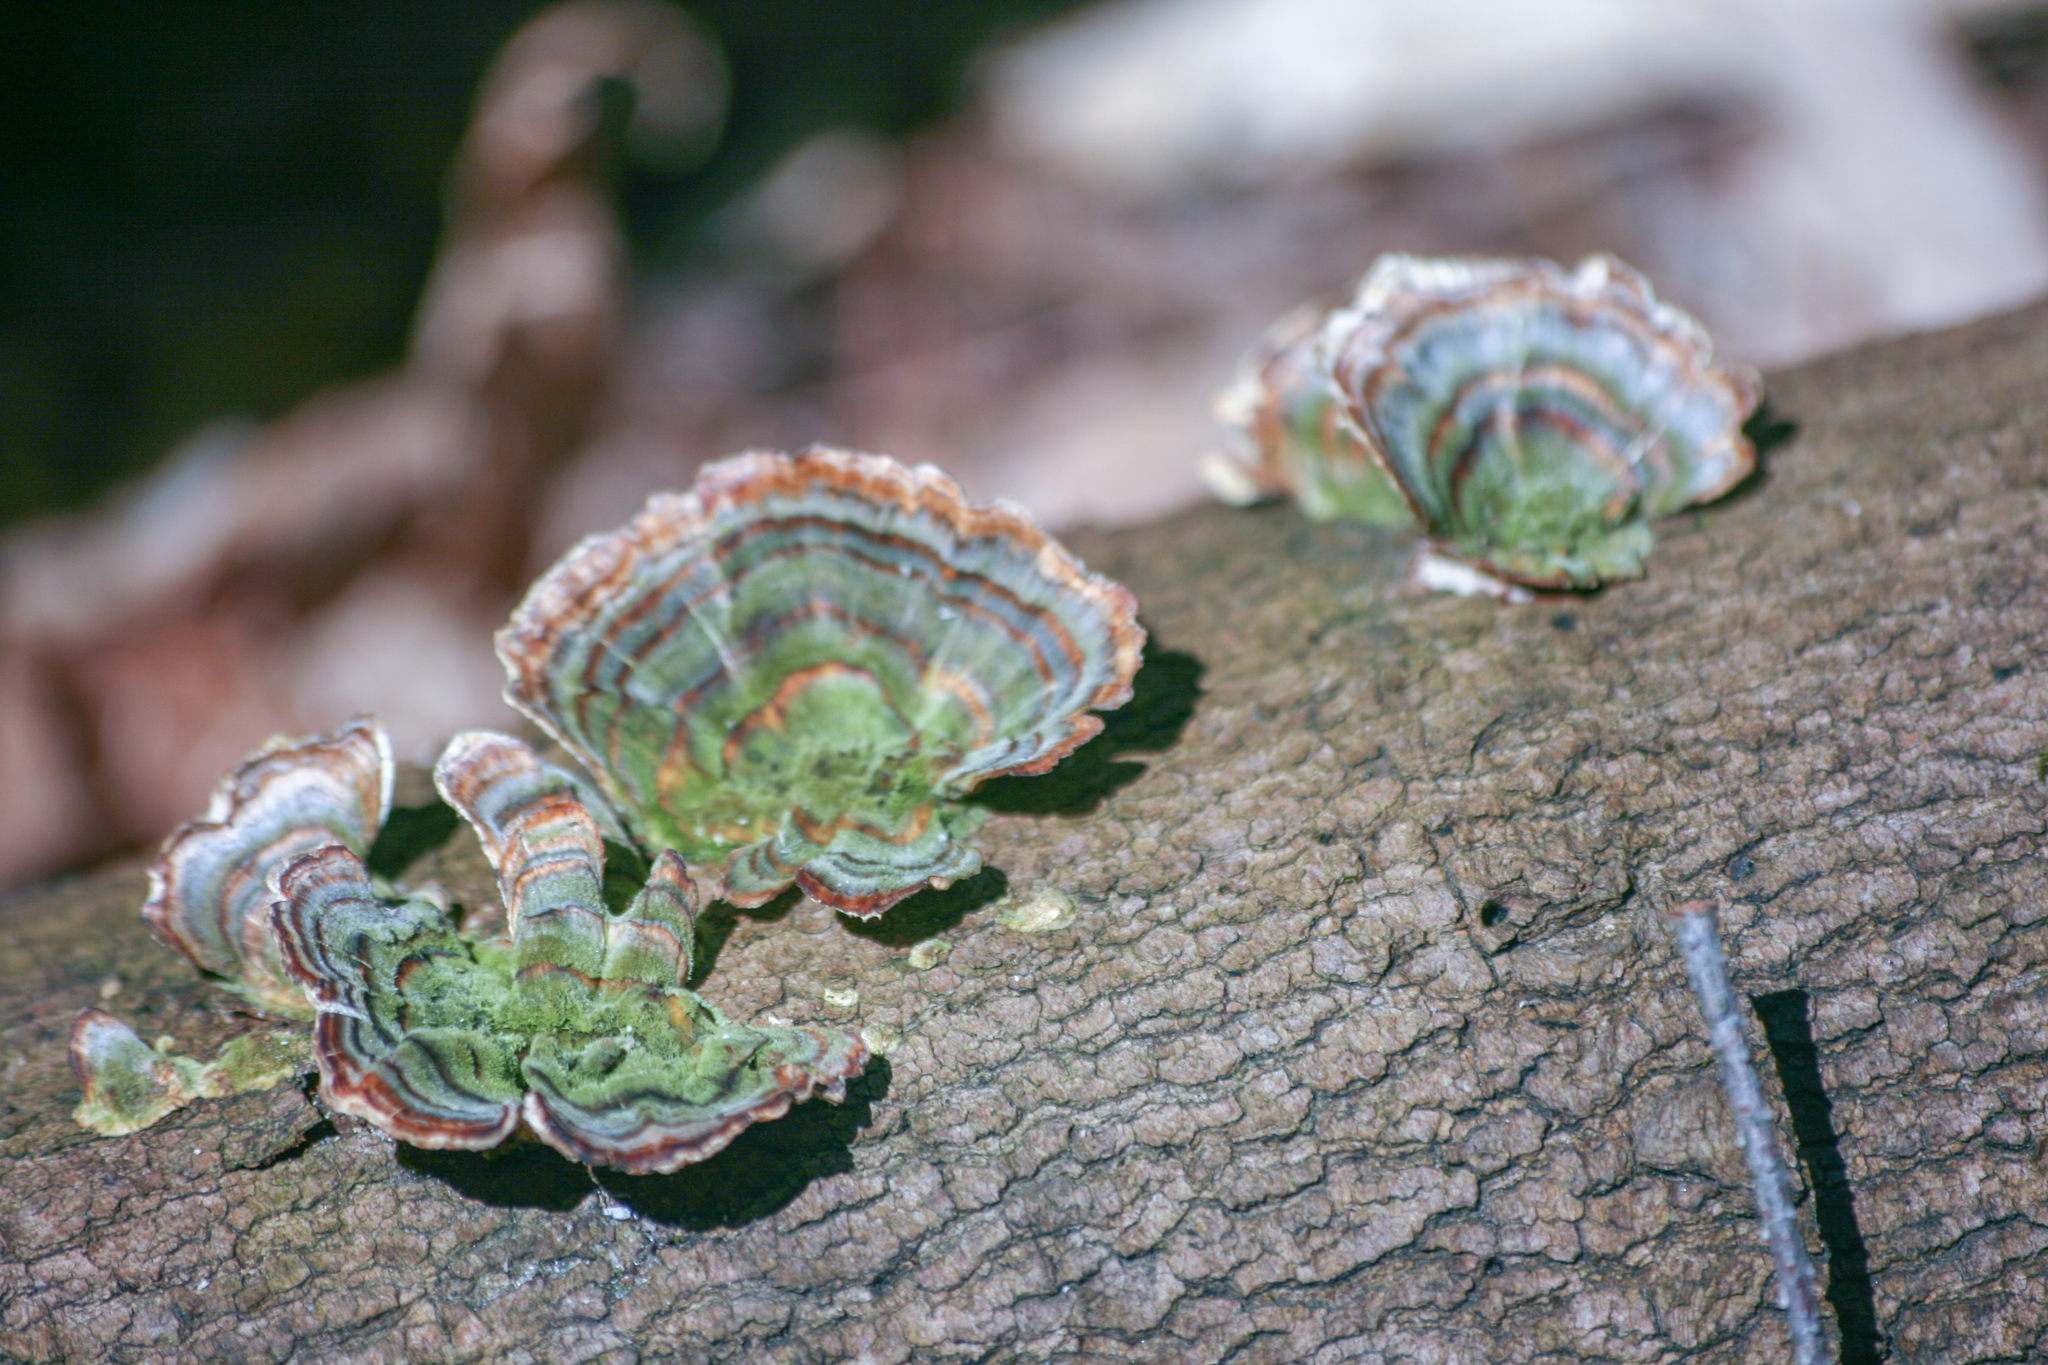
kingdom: Fungi
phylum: Basidiomycota
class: Agaricomycetes
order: Polyporales
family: Polyporaceae
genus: Trametes
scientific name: Trametes versicolor
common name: Turkeytail
